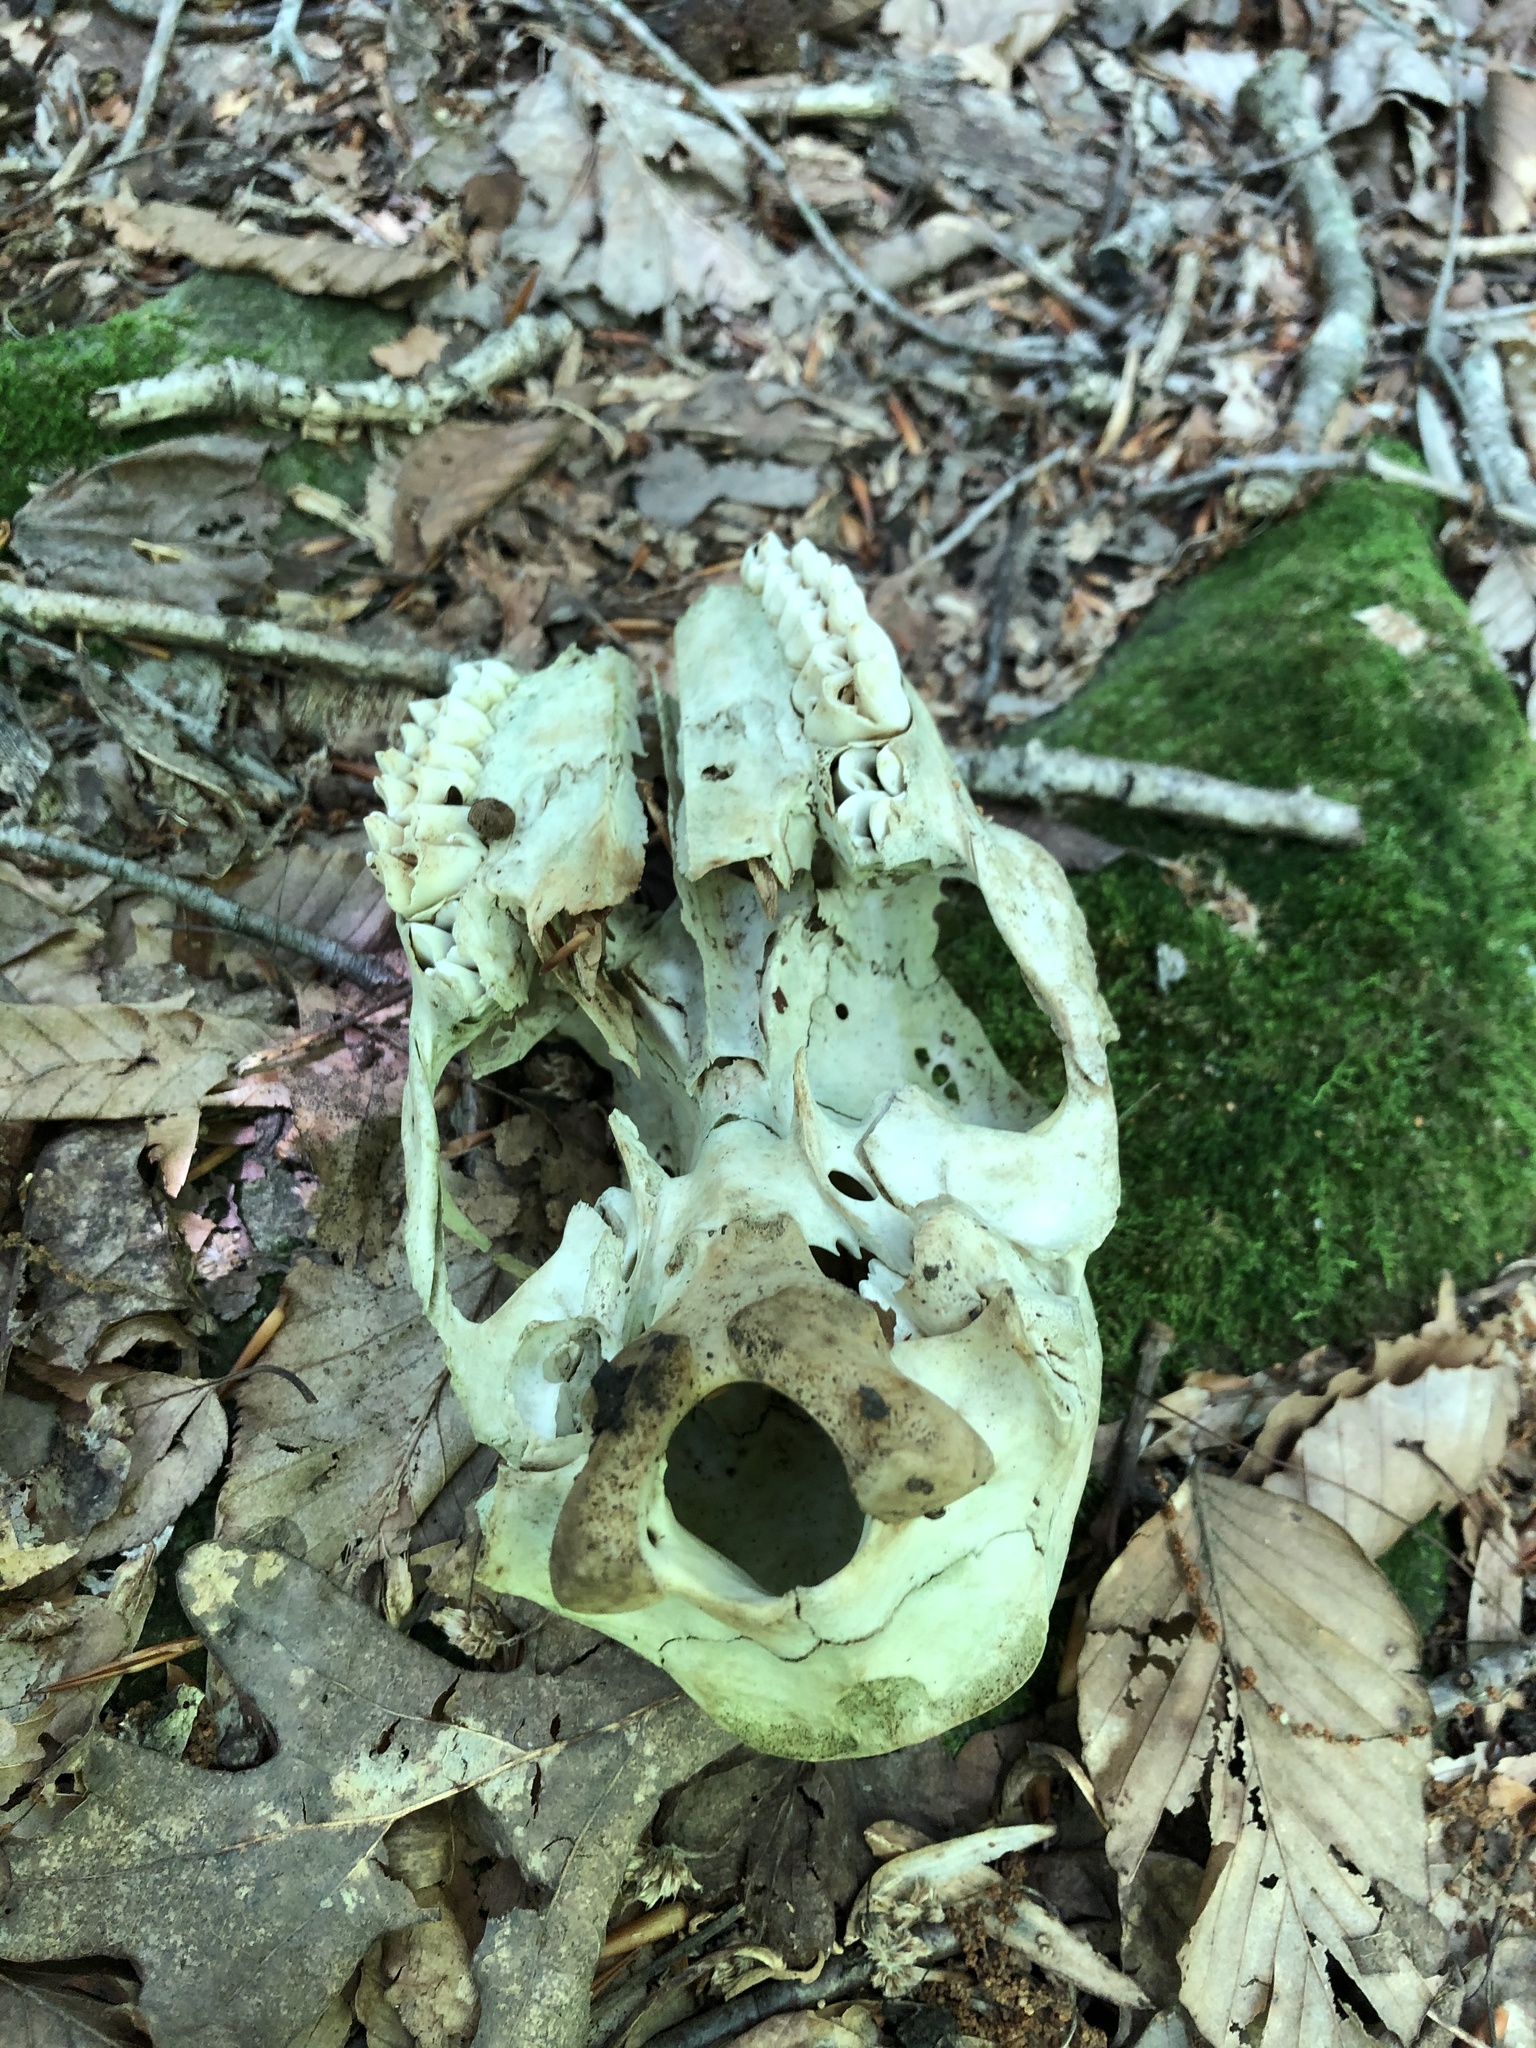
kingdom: Animalia
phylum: Chordata
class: Mammalia
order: Artiodactyla
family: Cervidae
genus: Odocoileus
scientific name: Odocoileus virginianus
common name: White-tailed deer
